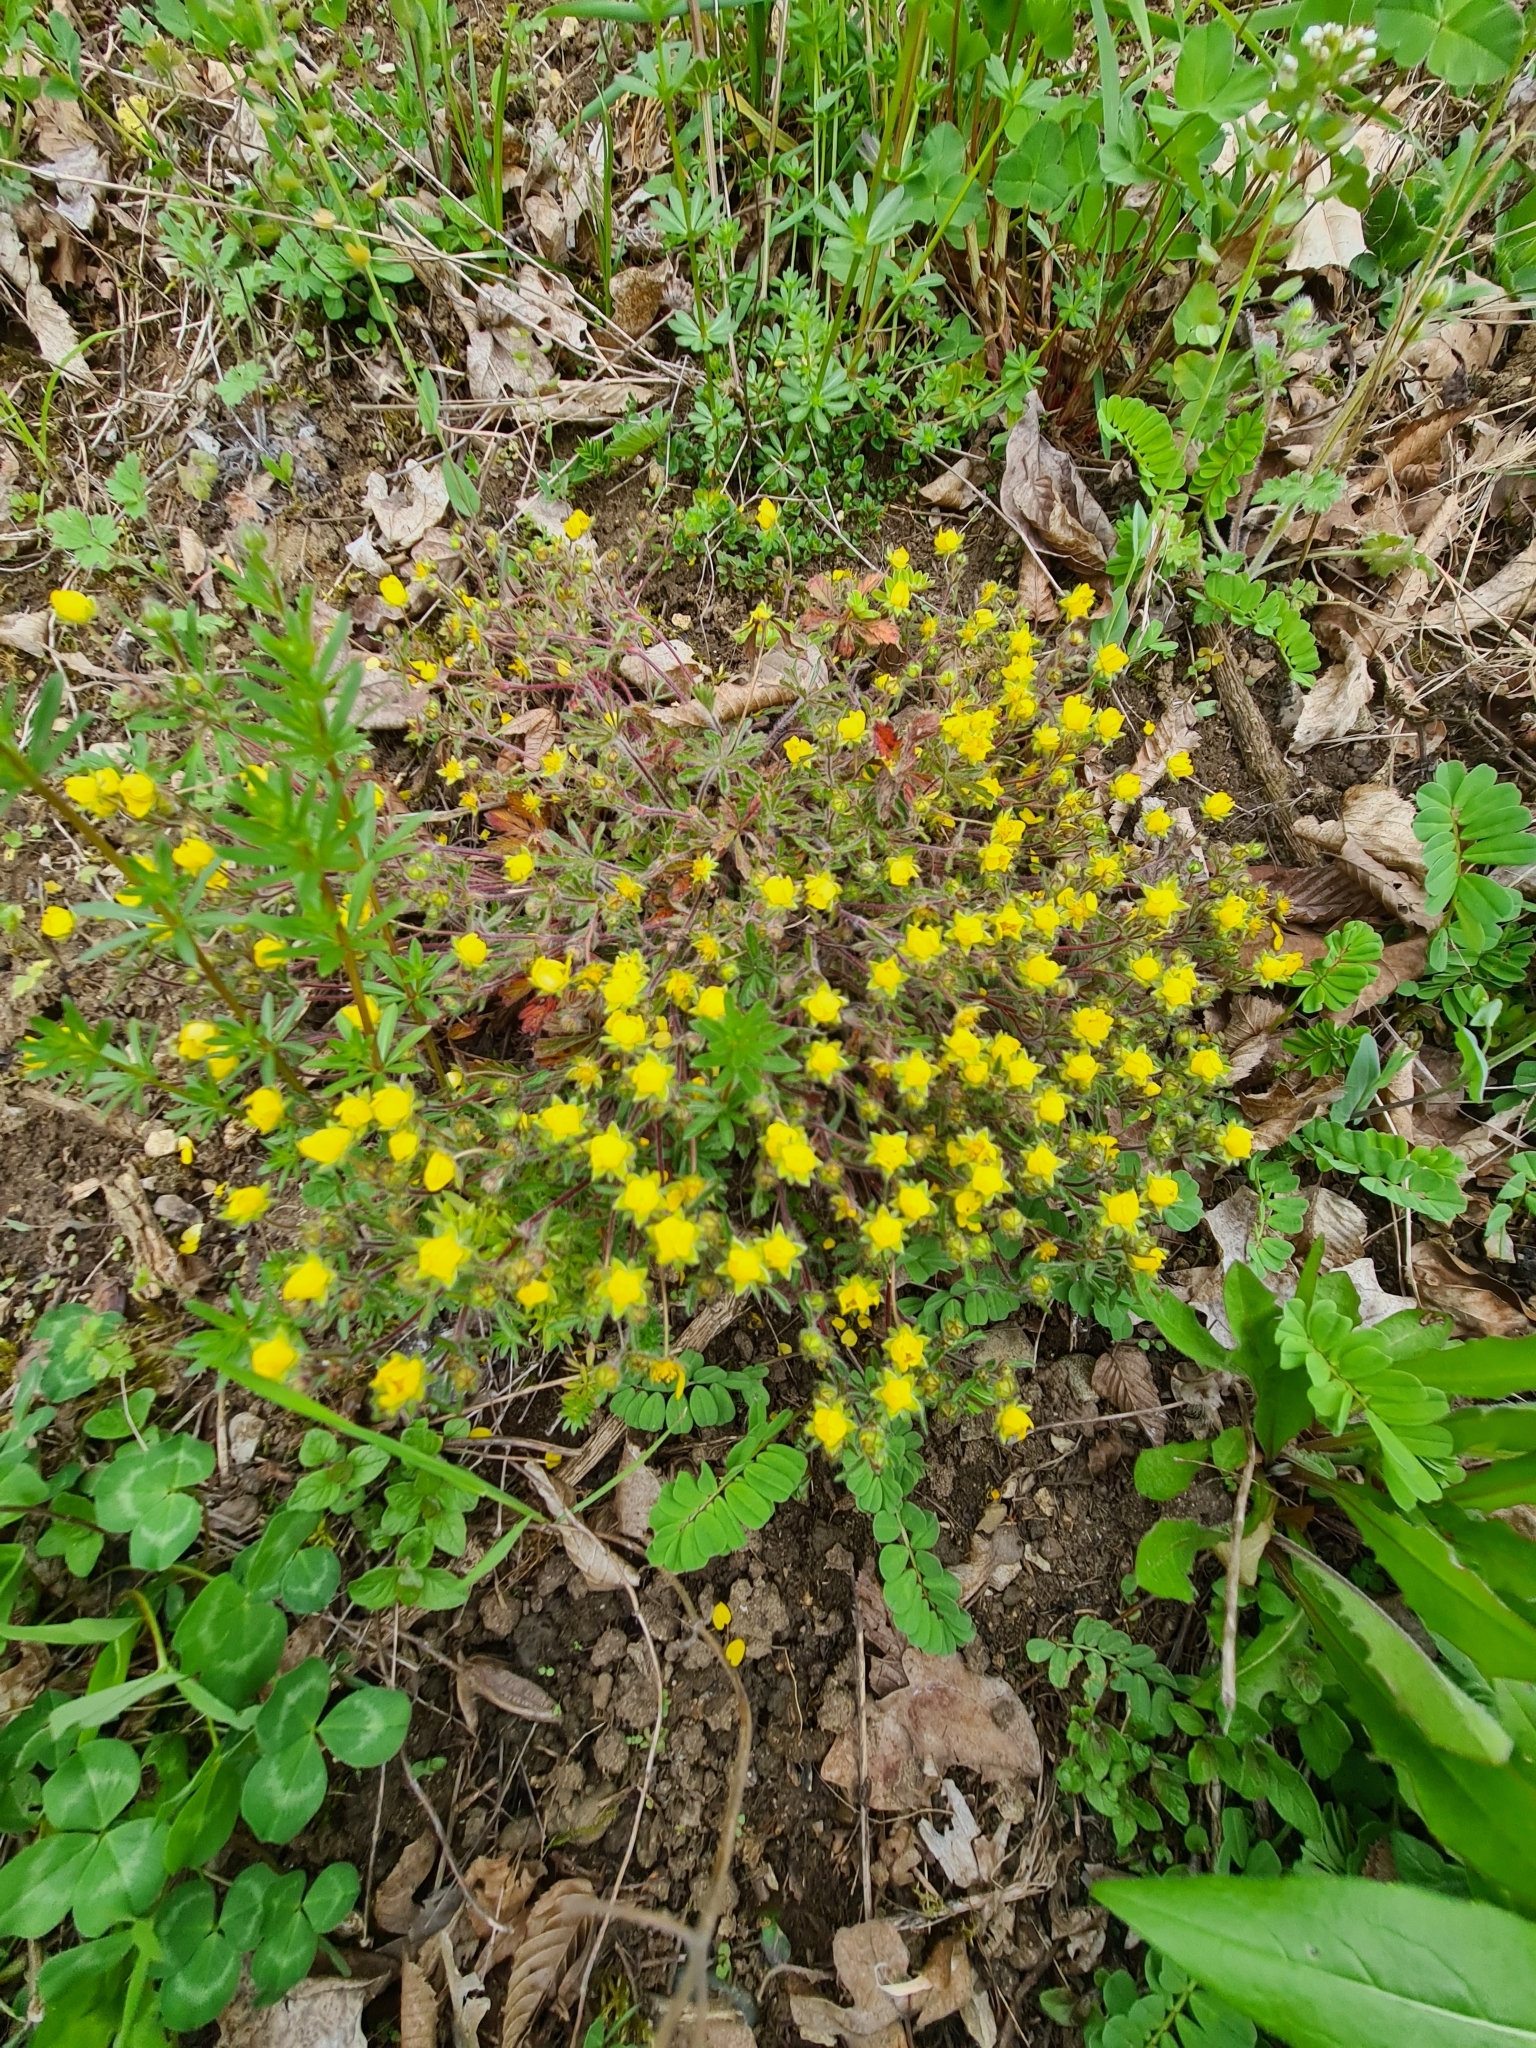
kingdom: Plantae
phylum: Tracheophyta
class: Magnoliopsida
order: Rosales
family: Rosaceae
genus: Potentilla
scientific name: Potentilla heptaphylla
